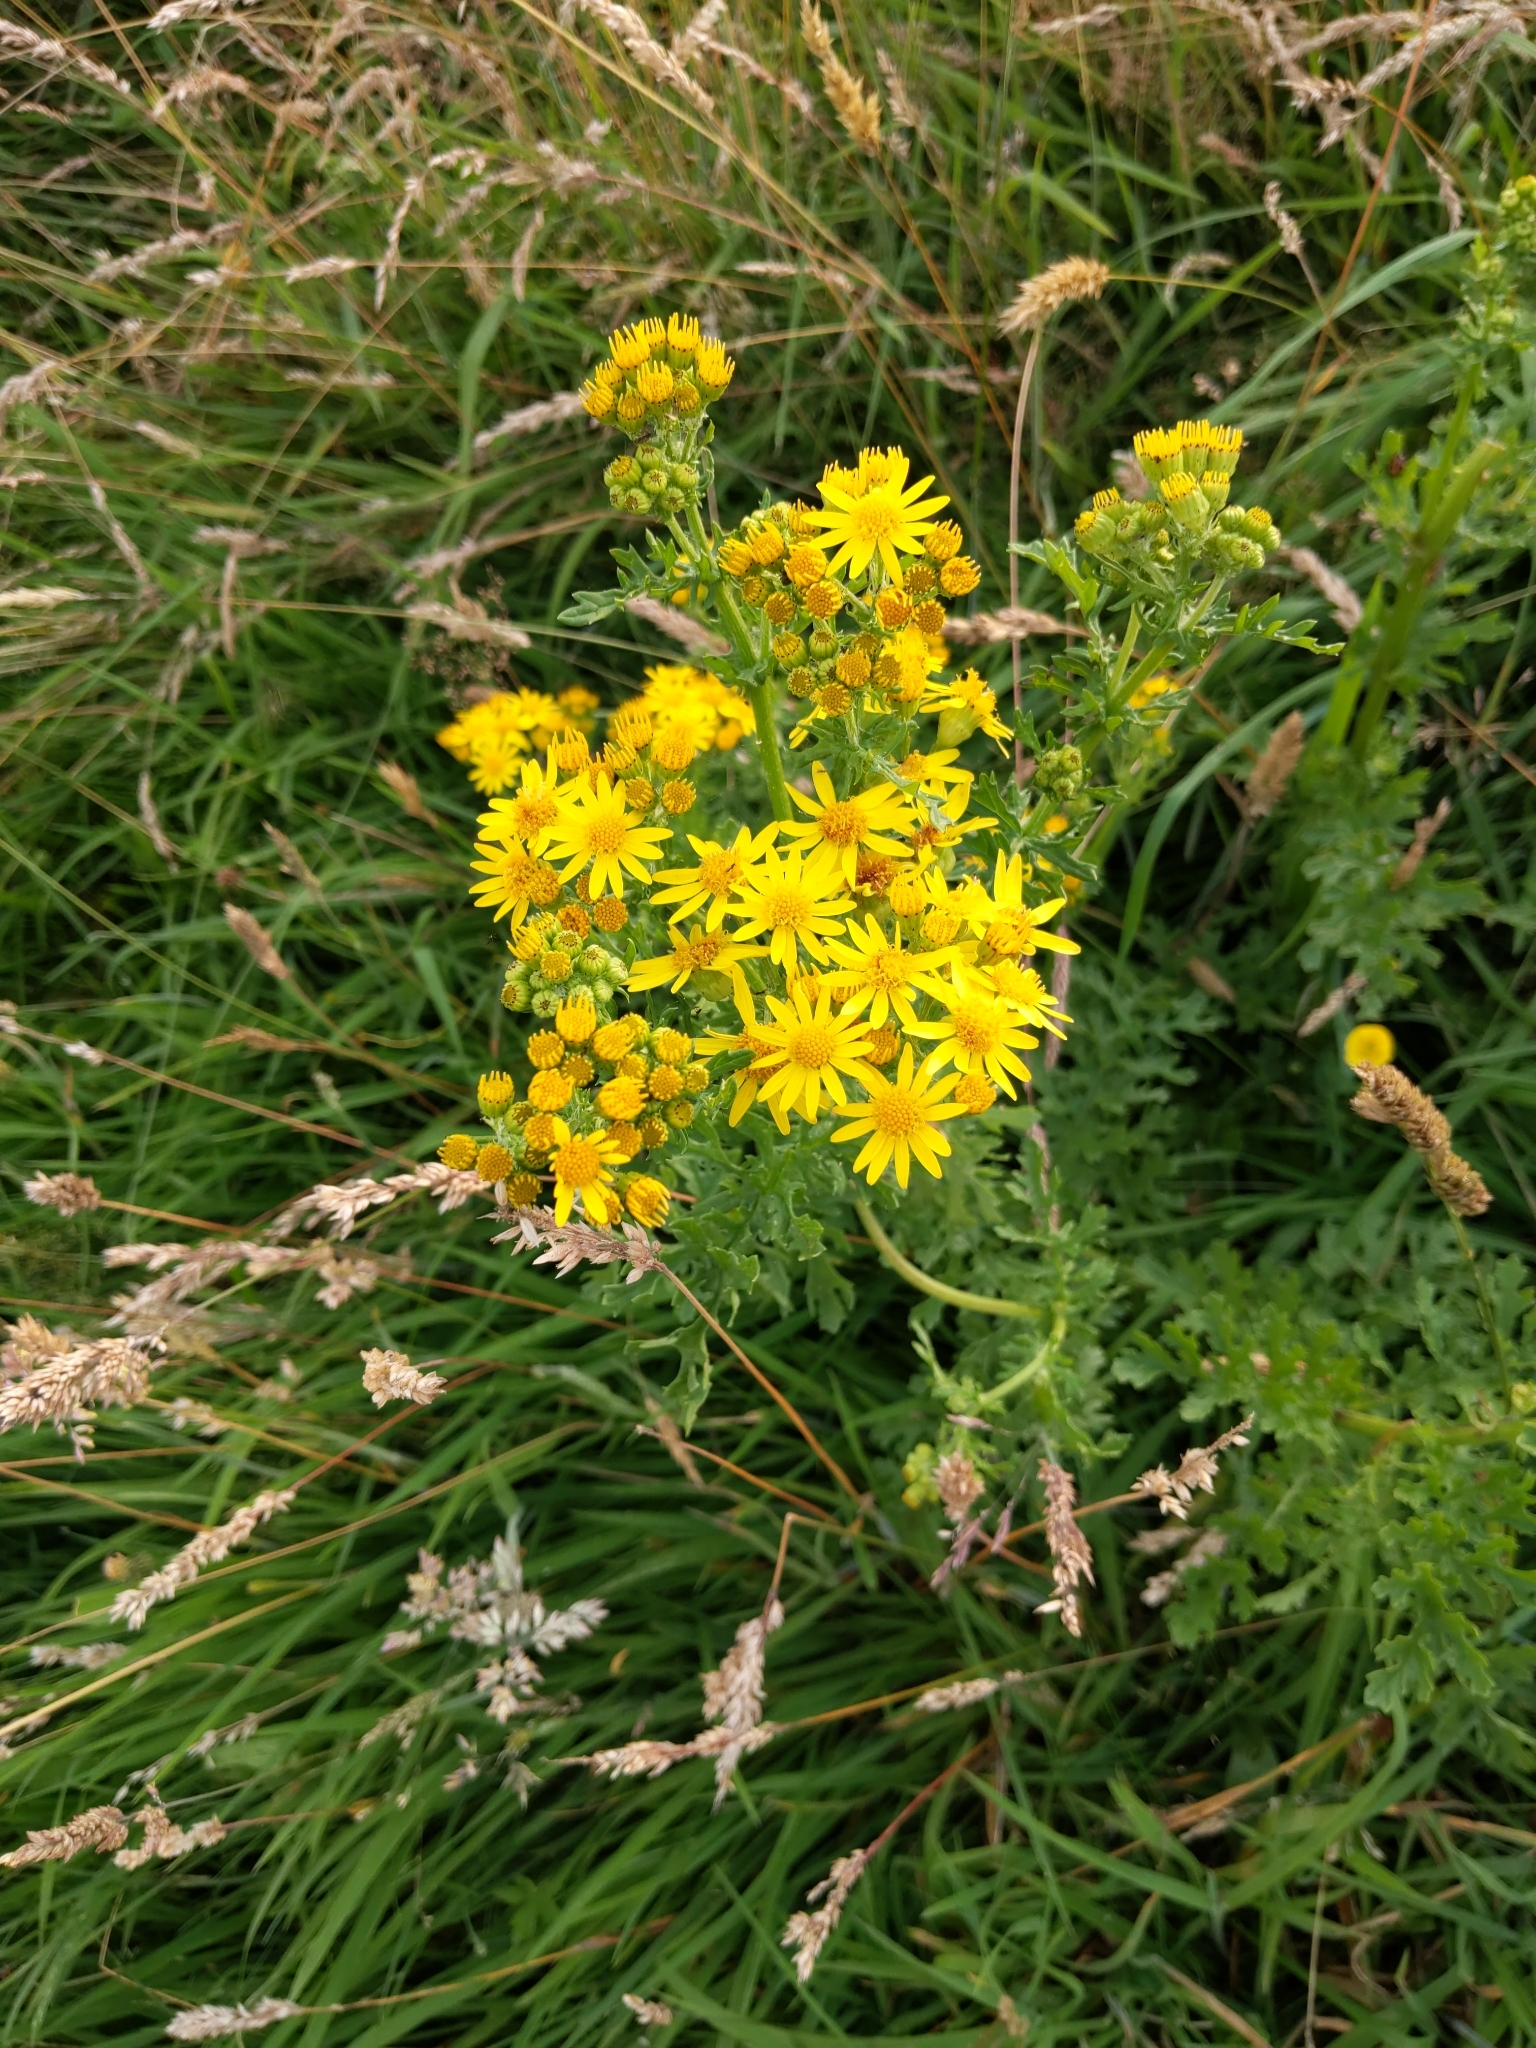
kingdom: Plantae
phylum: Tracheophyta
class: Magnoliopsida
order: Asterales
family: Asteraceae
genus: Jacobaea
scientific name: Jacobaea vulgaris
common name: Stinking willie
